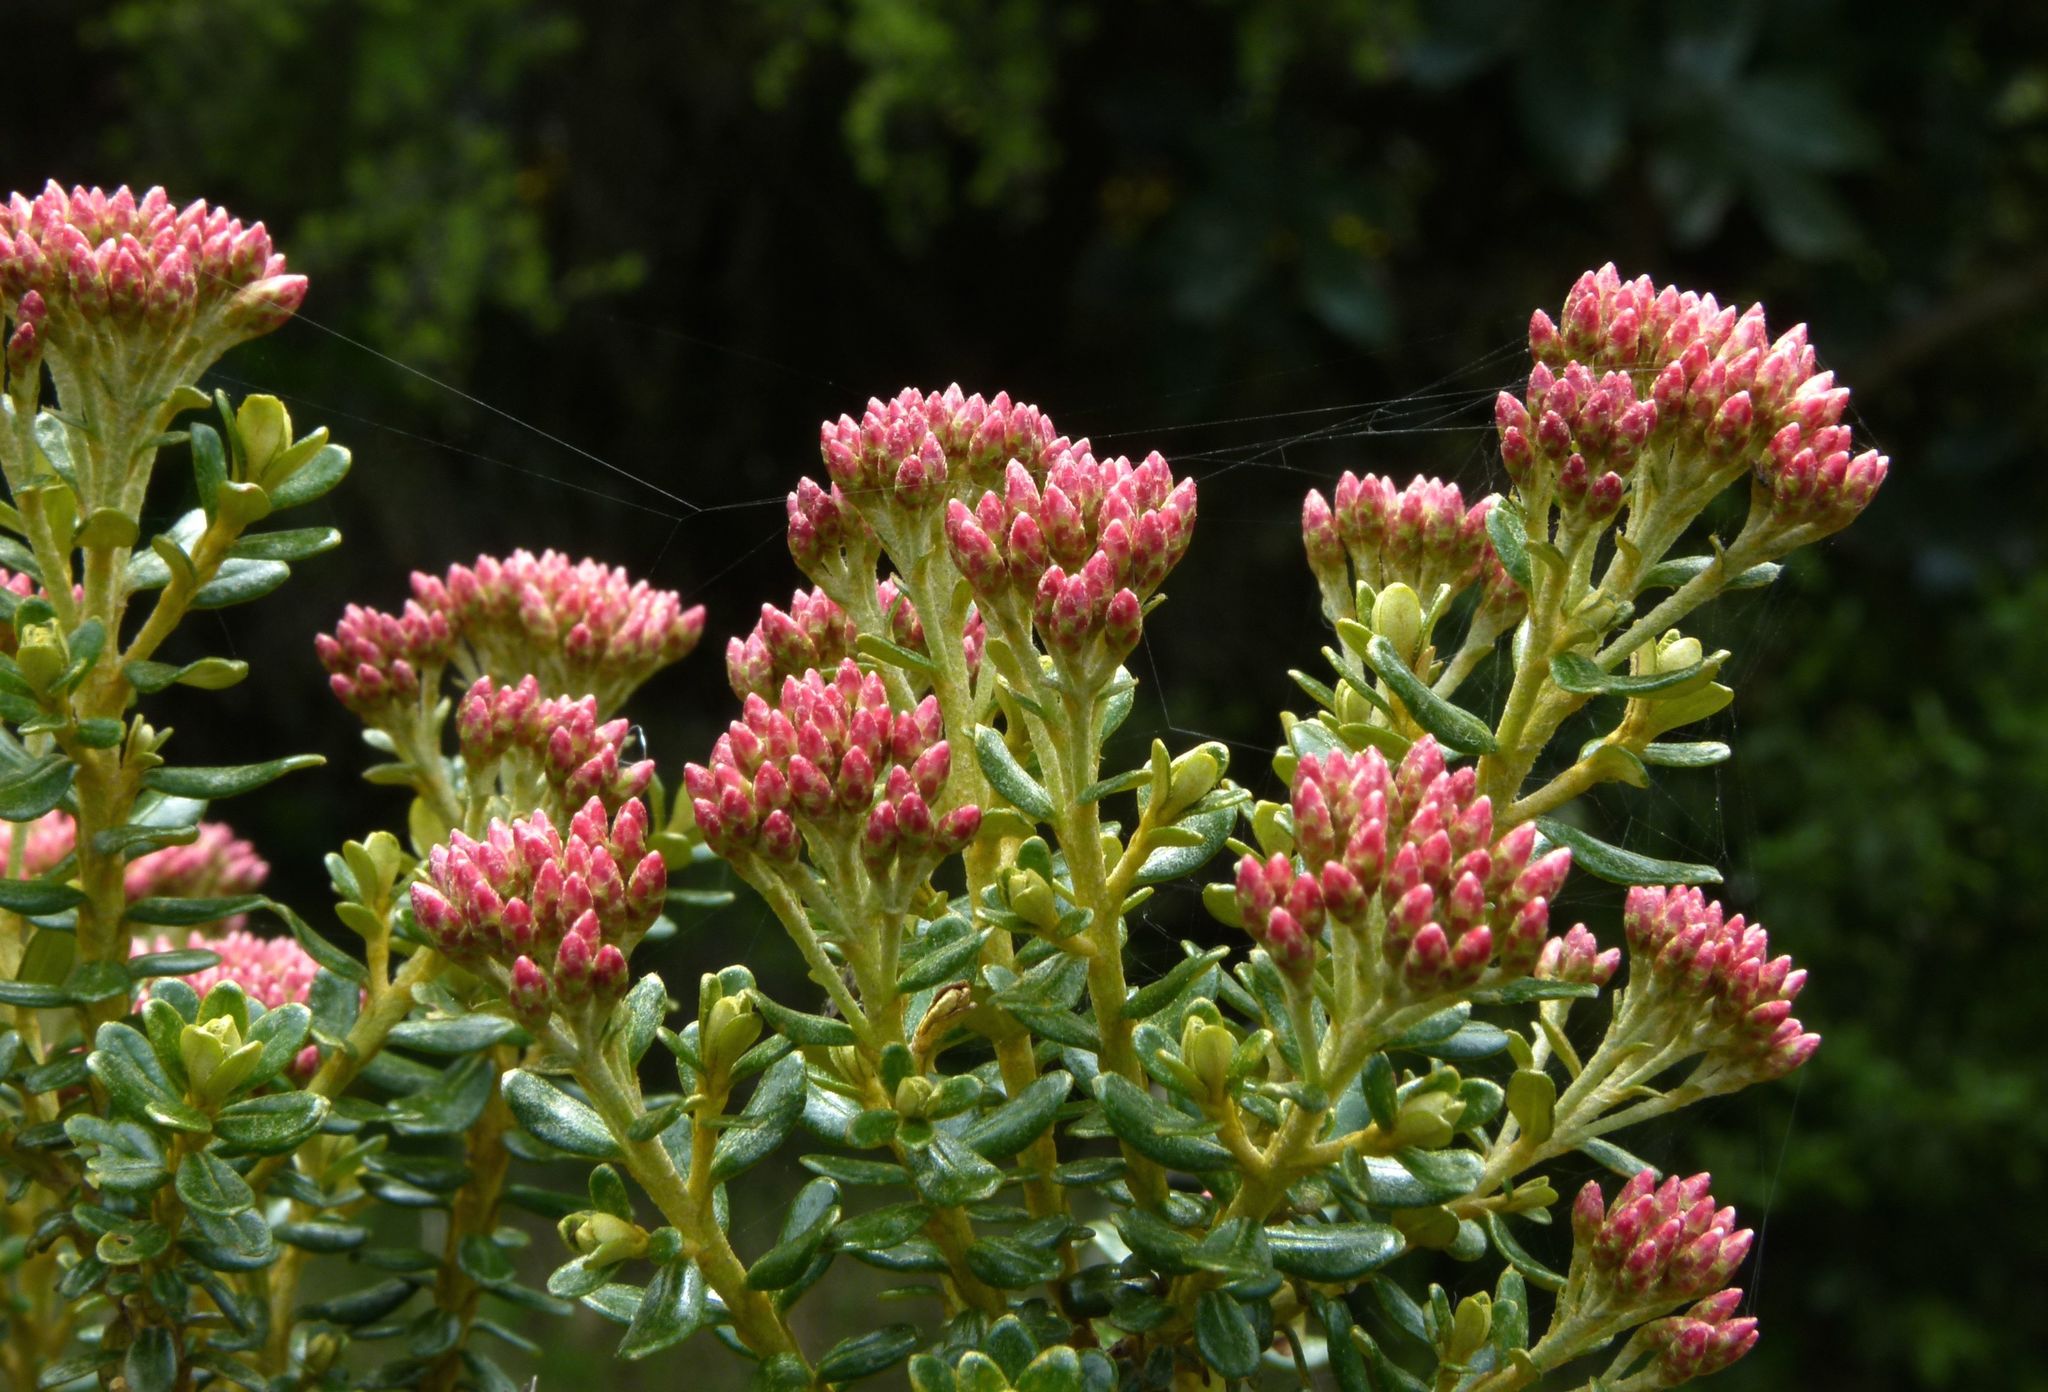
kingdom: Plantae
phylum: Tracheophyta
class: Magnoliopsida
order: Asterales
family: Asteraceae
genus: Ozothamnus
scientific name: Ozothamnus leptophyllus
